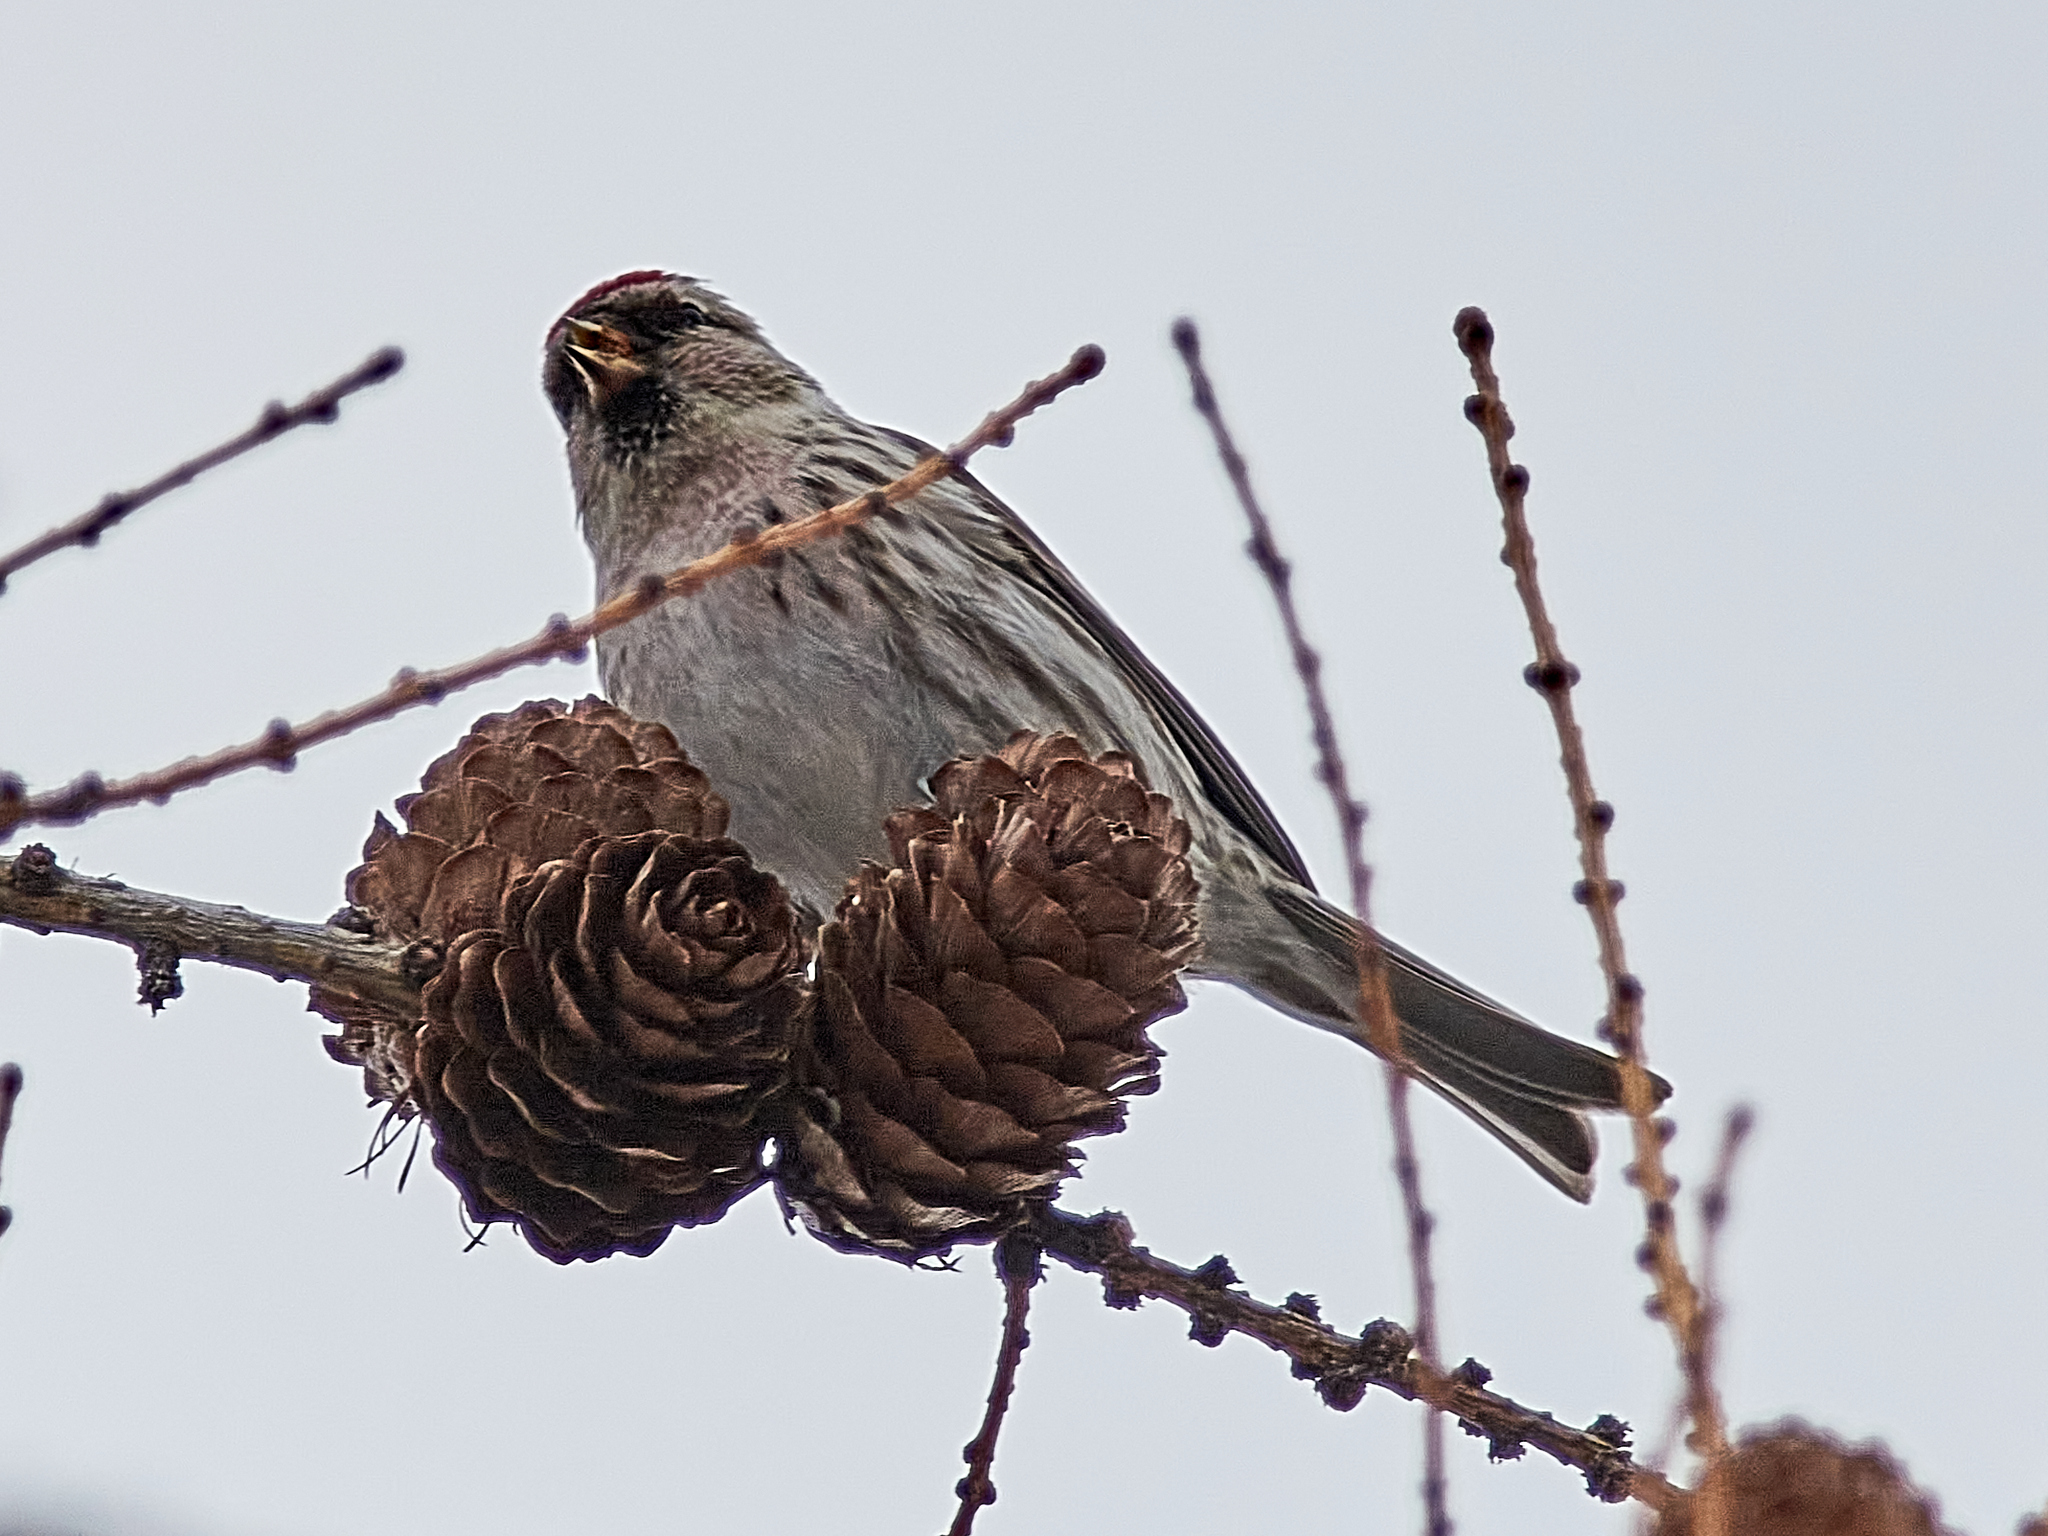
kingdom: Animalia
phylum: Chordata
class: Aves
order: Passeriformes
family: Fringillidae
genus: Acanthis
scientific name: Acanthis flammea
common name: Common redpoll
